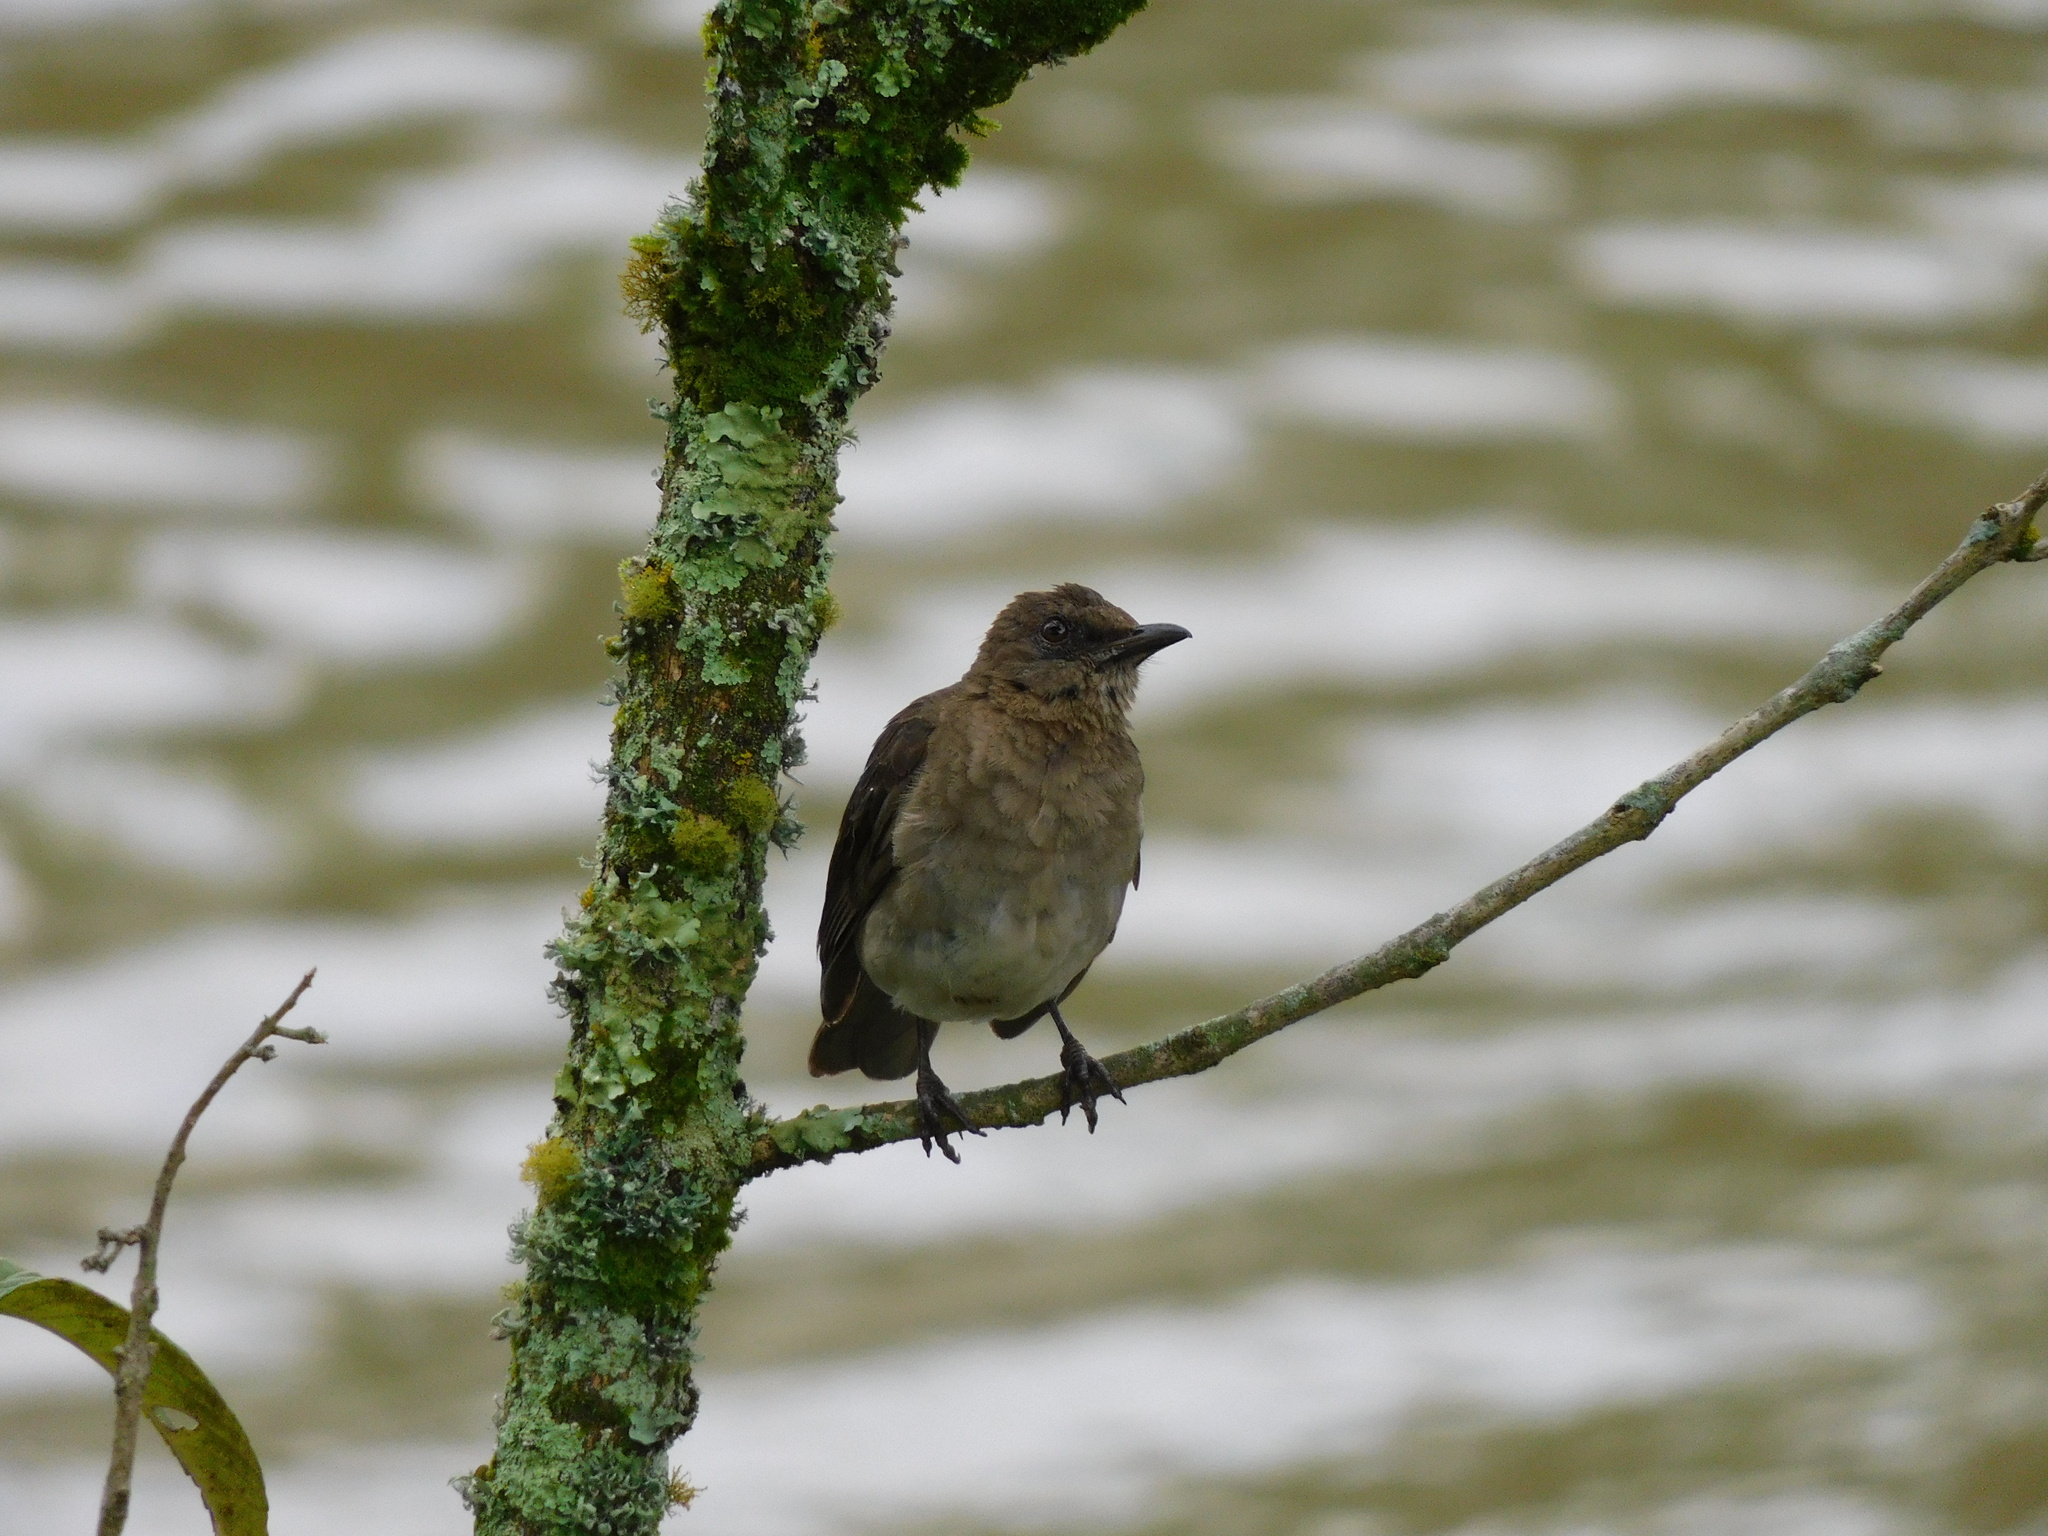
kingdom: Animalia
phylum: Chordata
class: Aves
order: Passeriformes
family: Turdidae
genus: Turdus
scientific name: Turdus ignobilis
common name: Black-billed thrush
